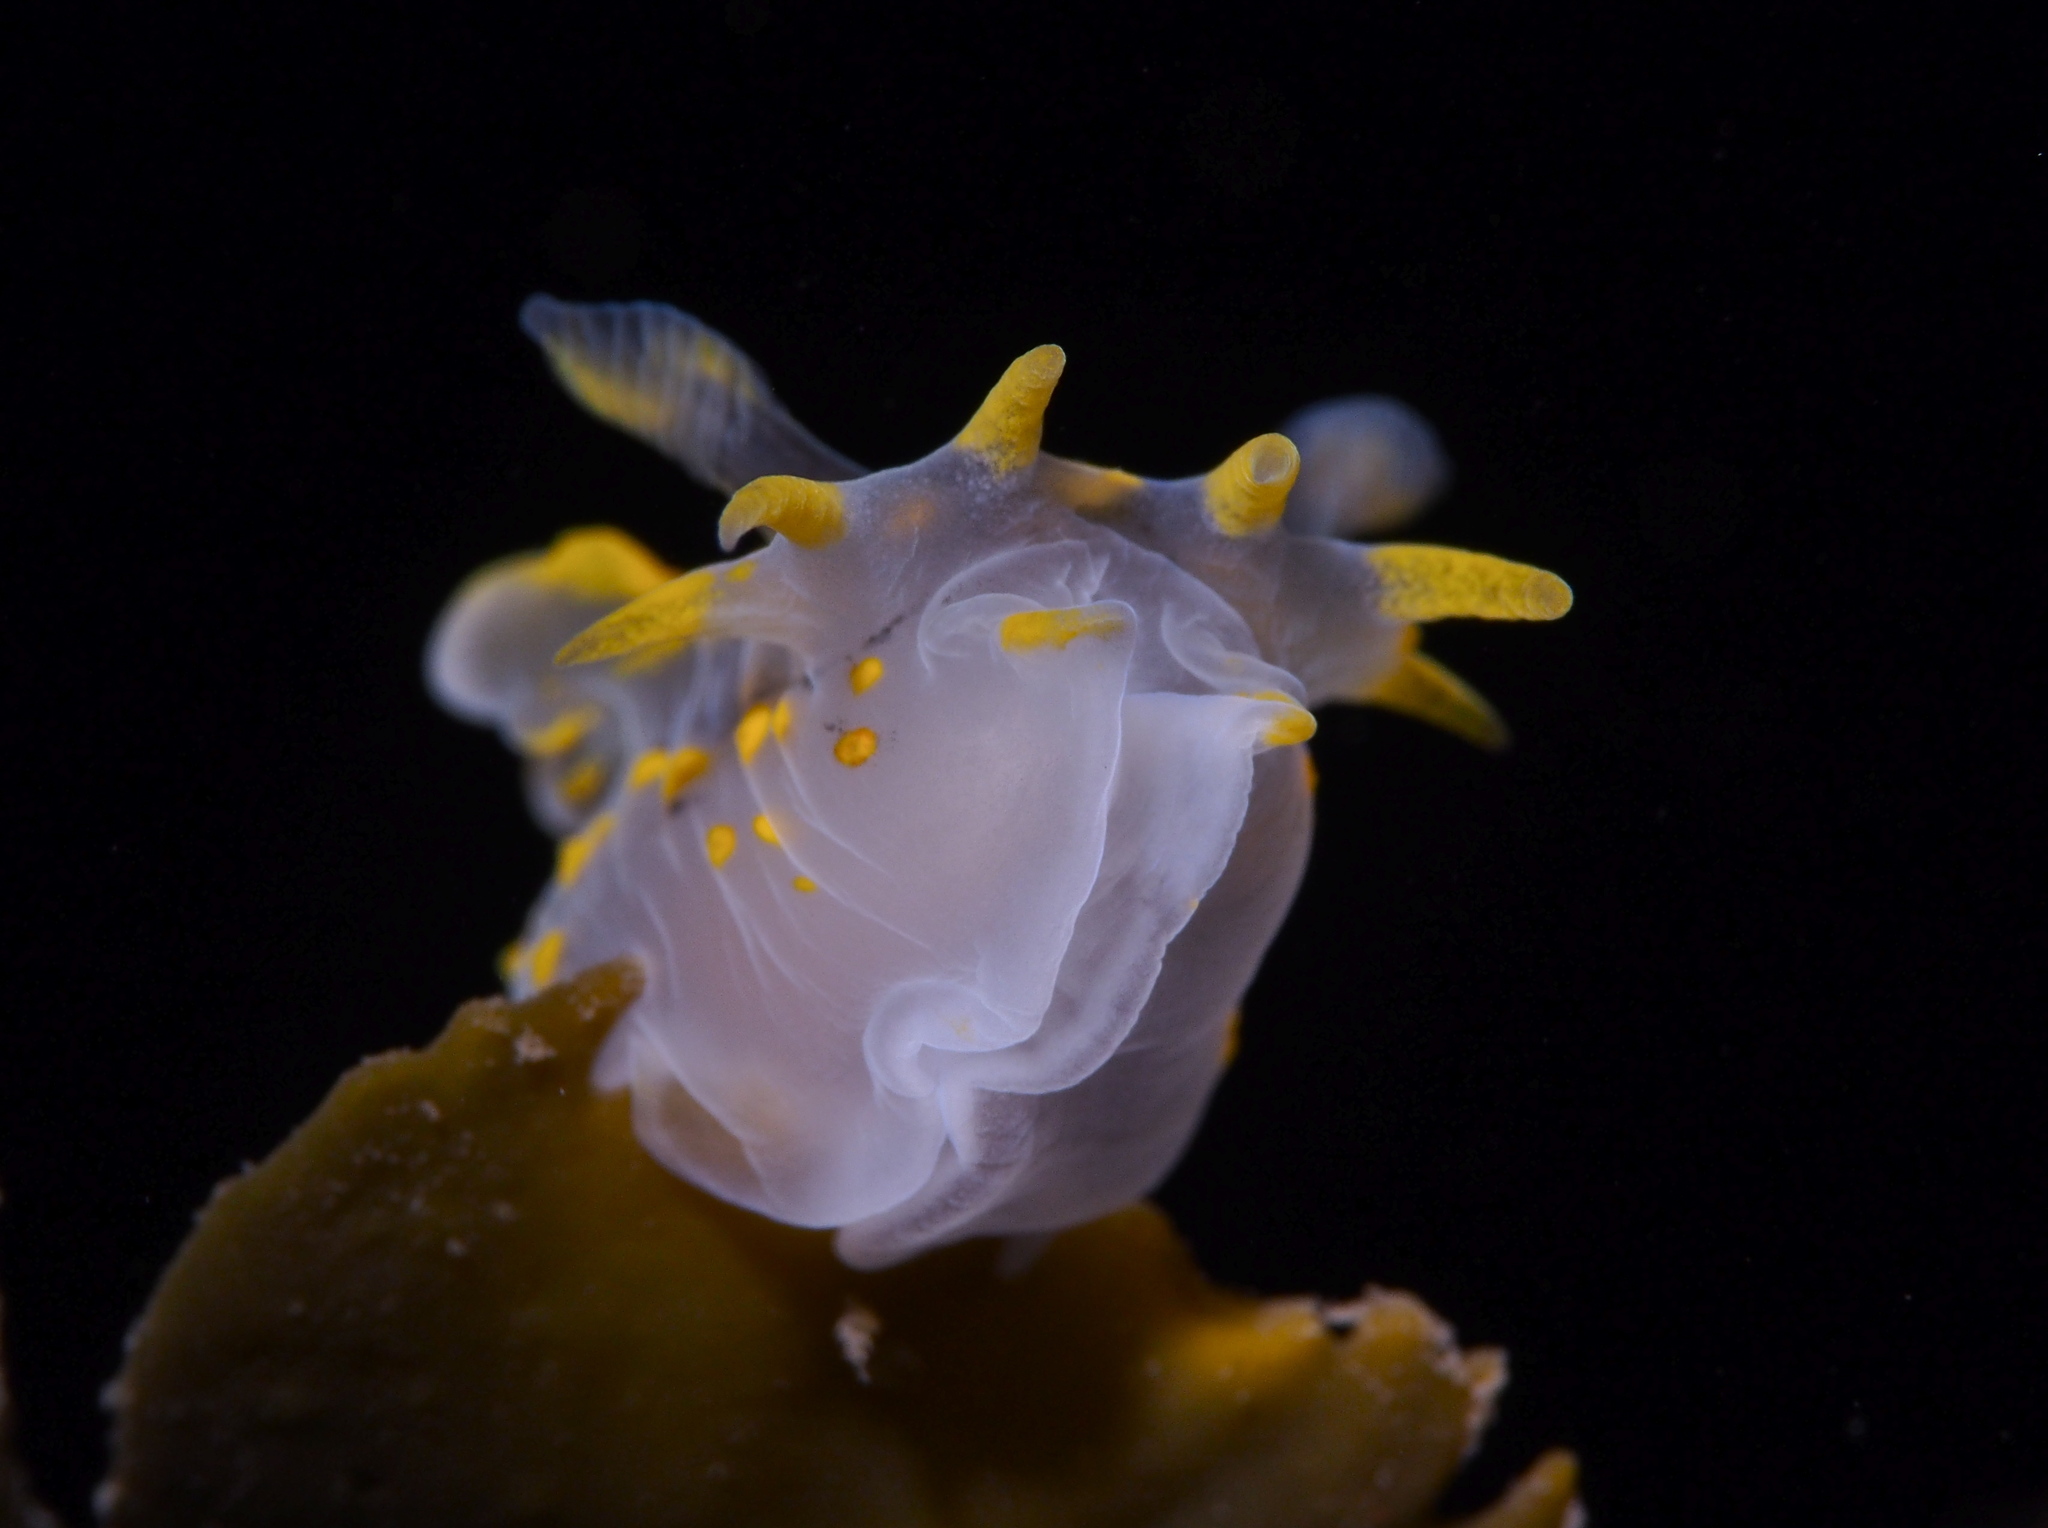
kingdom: Animalia
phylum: Mollusca
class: Gastropoda
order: Nudibranchia
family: Polyceridae
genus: Polycera
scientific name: Polycera quadrilineata
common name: Four-striped polycera
